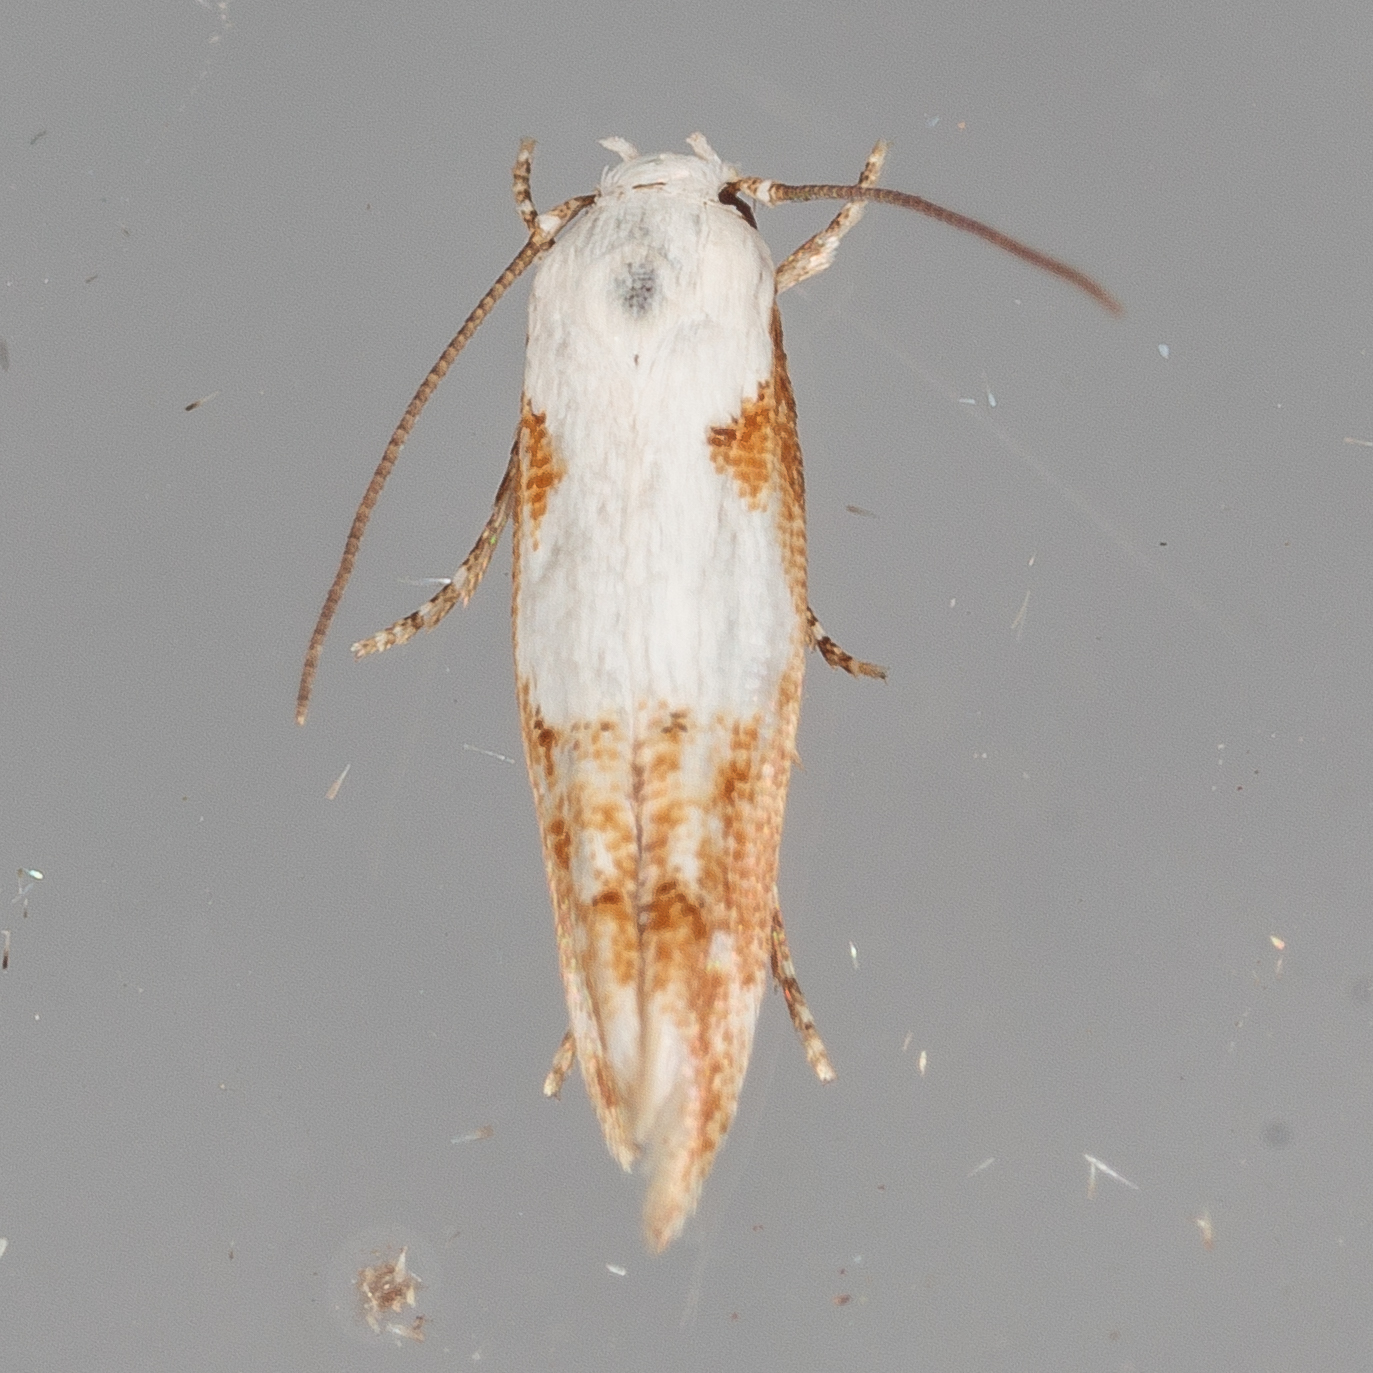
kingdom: Animalia
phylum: Arthropoda
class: Insecta
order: Lepidoptera
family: Momphidae
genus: Mompha
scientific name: Mompha circumscriptella
